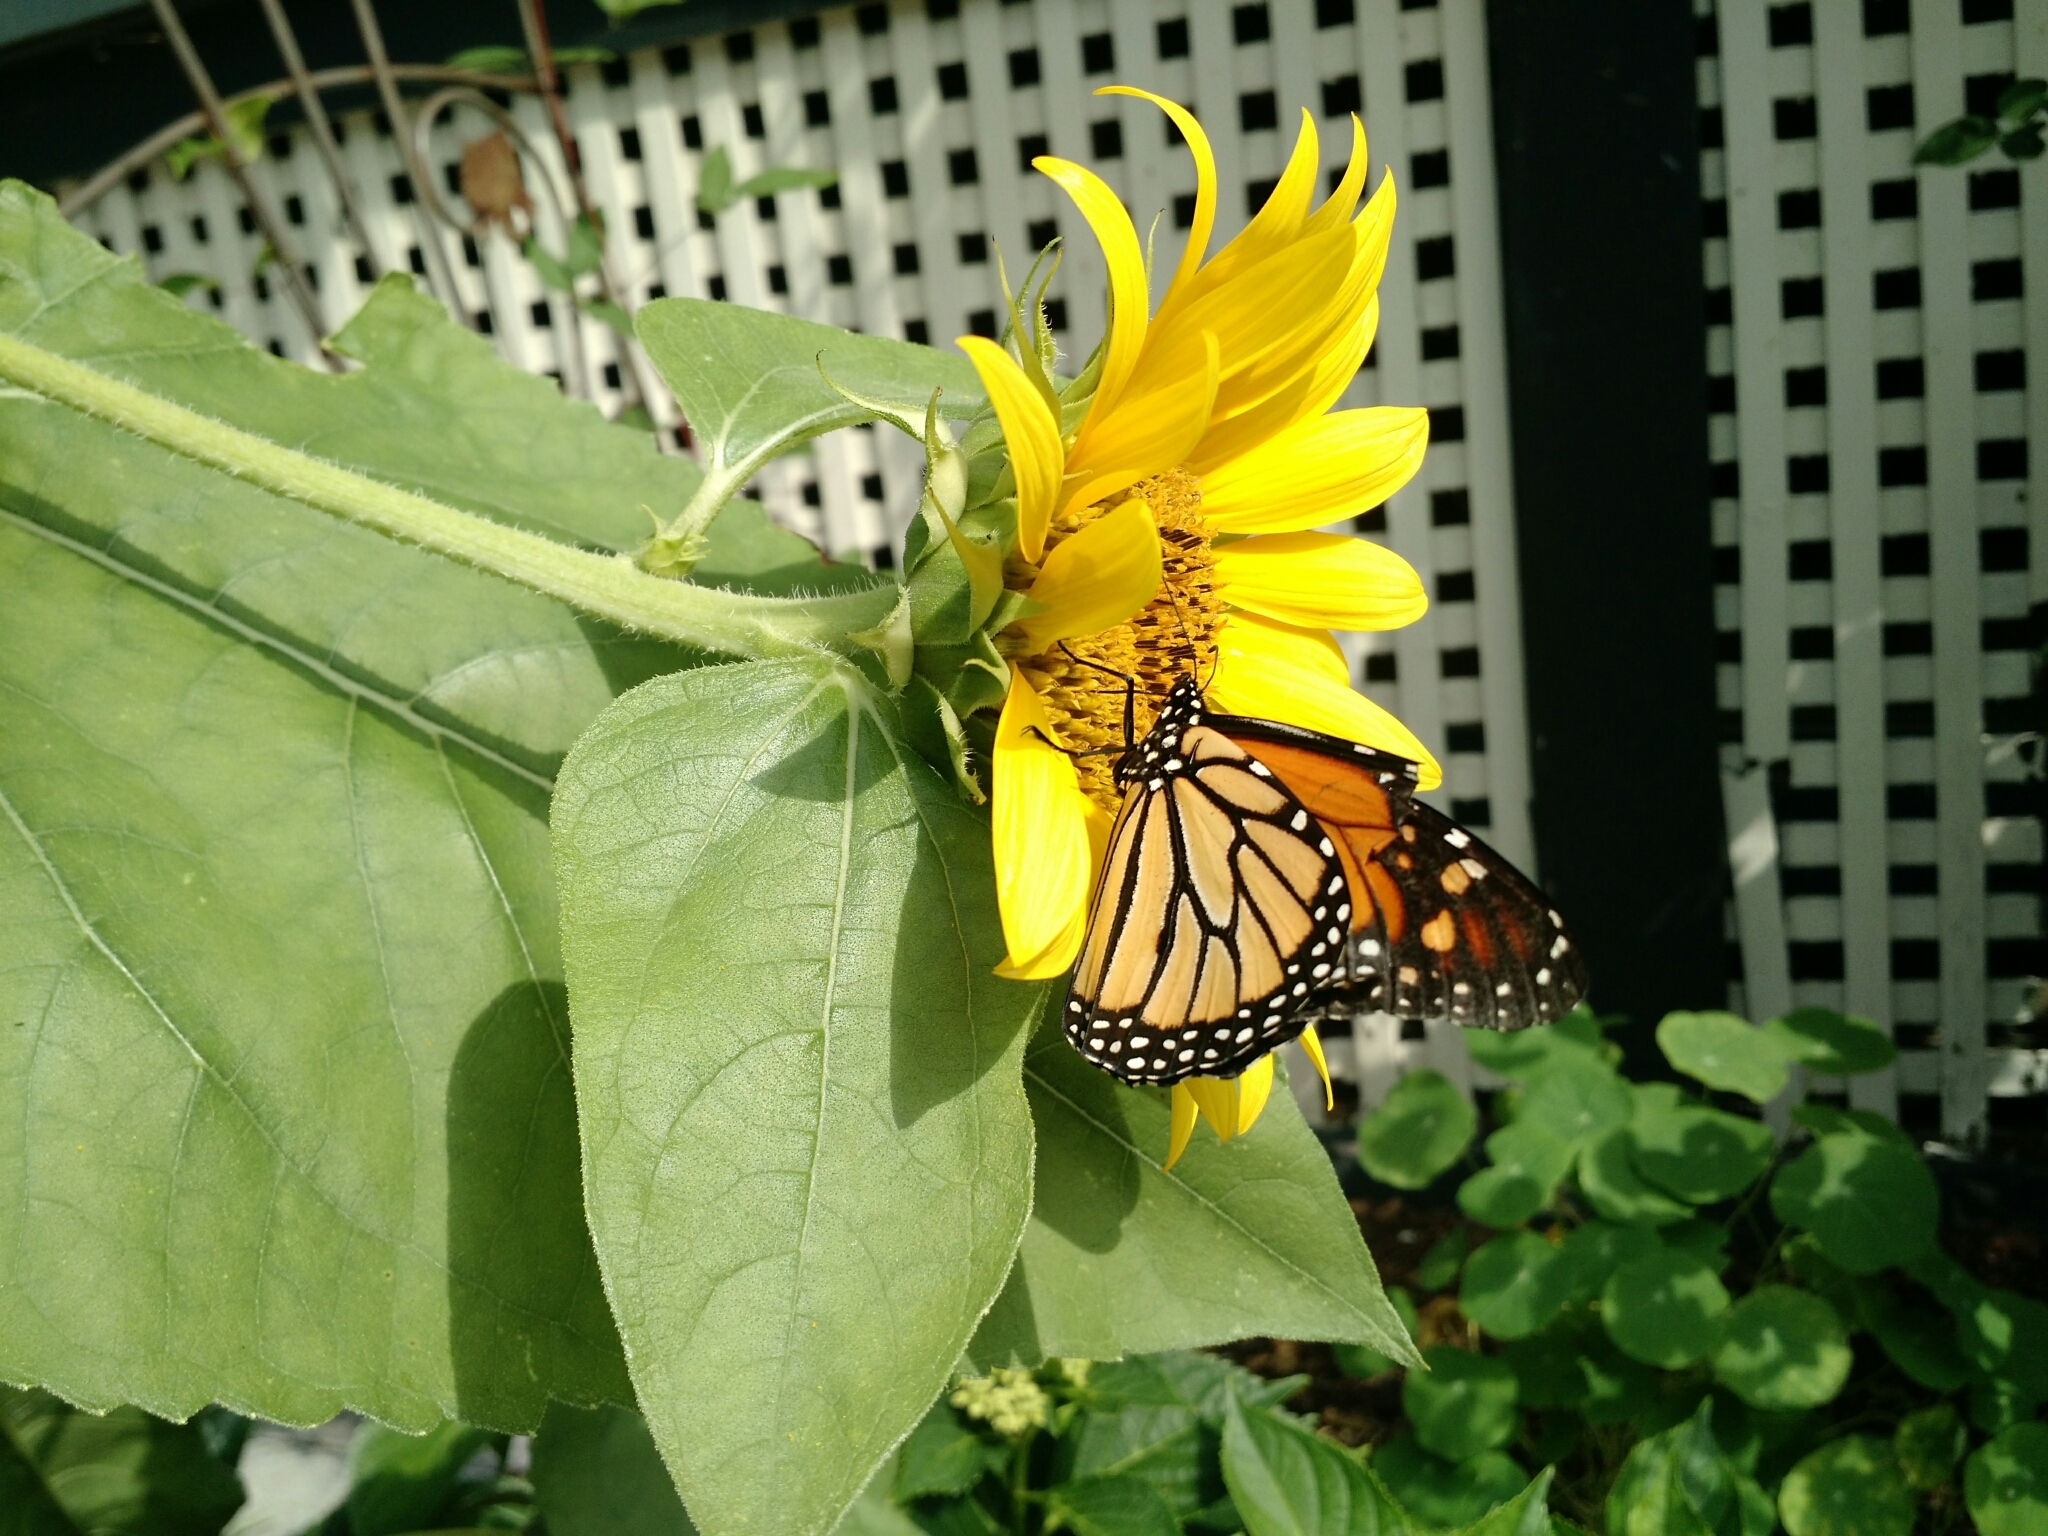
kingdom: Animalia
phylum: Arthropoda
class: Insecta
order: Lepidoptera
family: Nymphalidae
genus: Danaus
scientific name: Danaus plexippus
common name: Monarch
